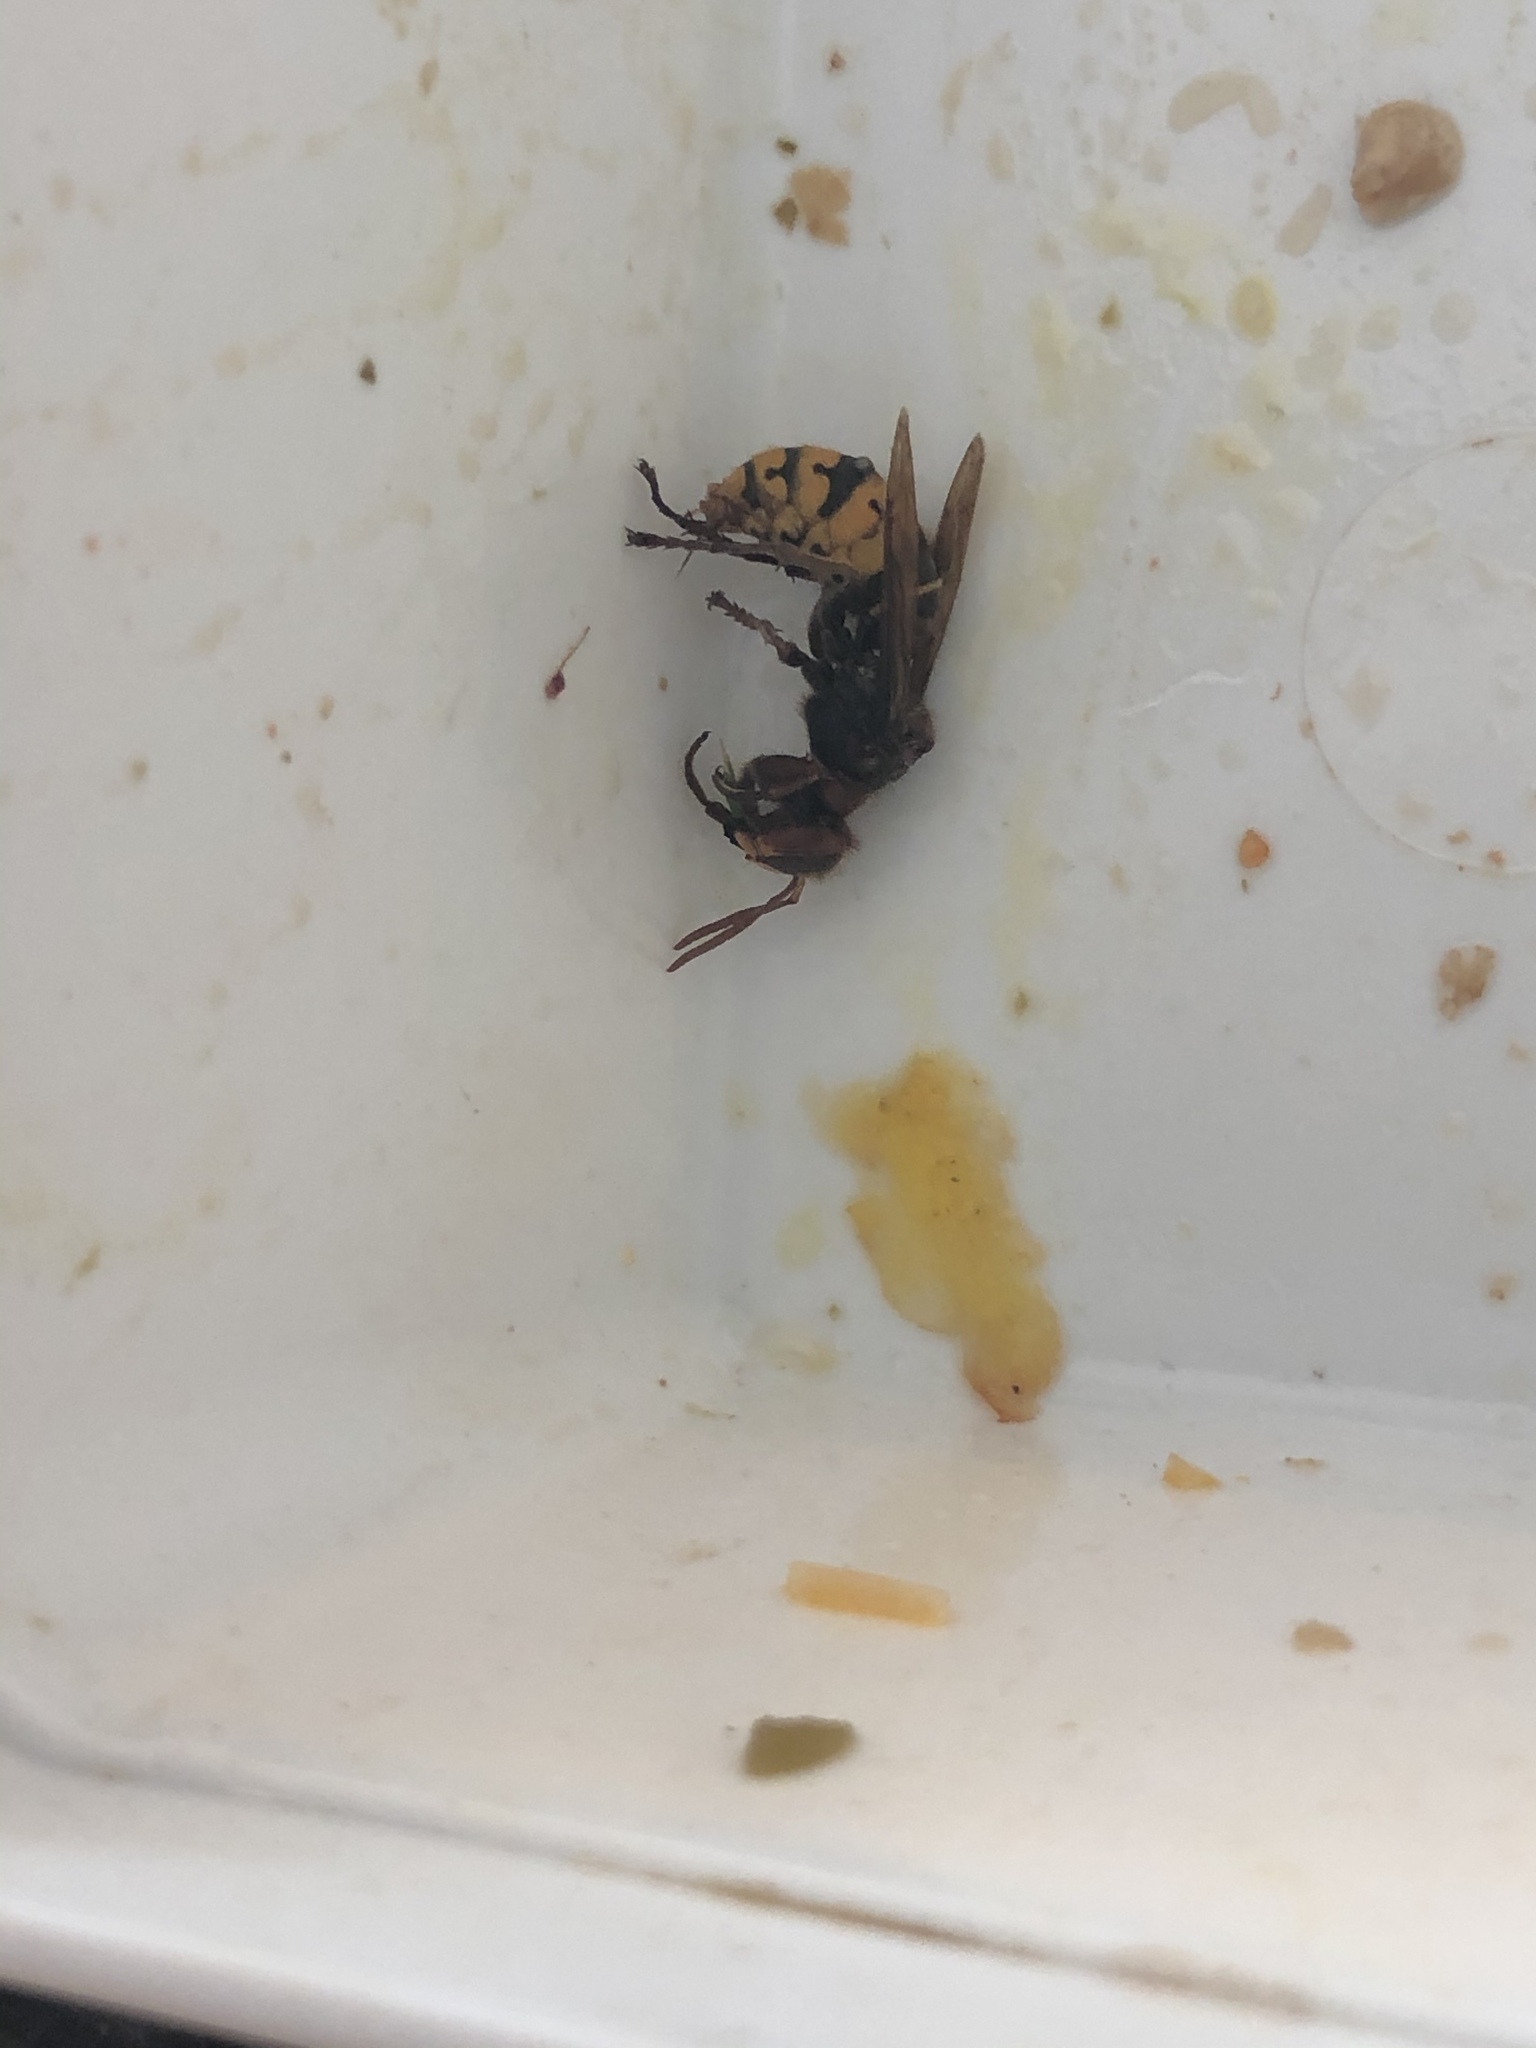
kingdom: Animalia
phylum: Arthropoda
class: Insecta
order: Hymenoptera
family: Vespidae
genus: Vespa
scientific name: Vespa crabro
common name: Hornet
